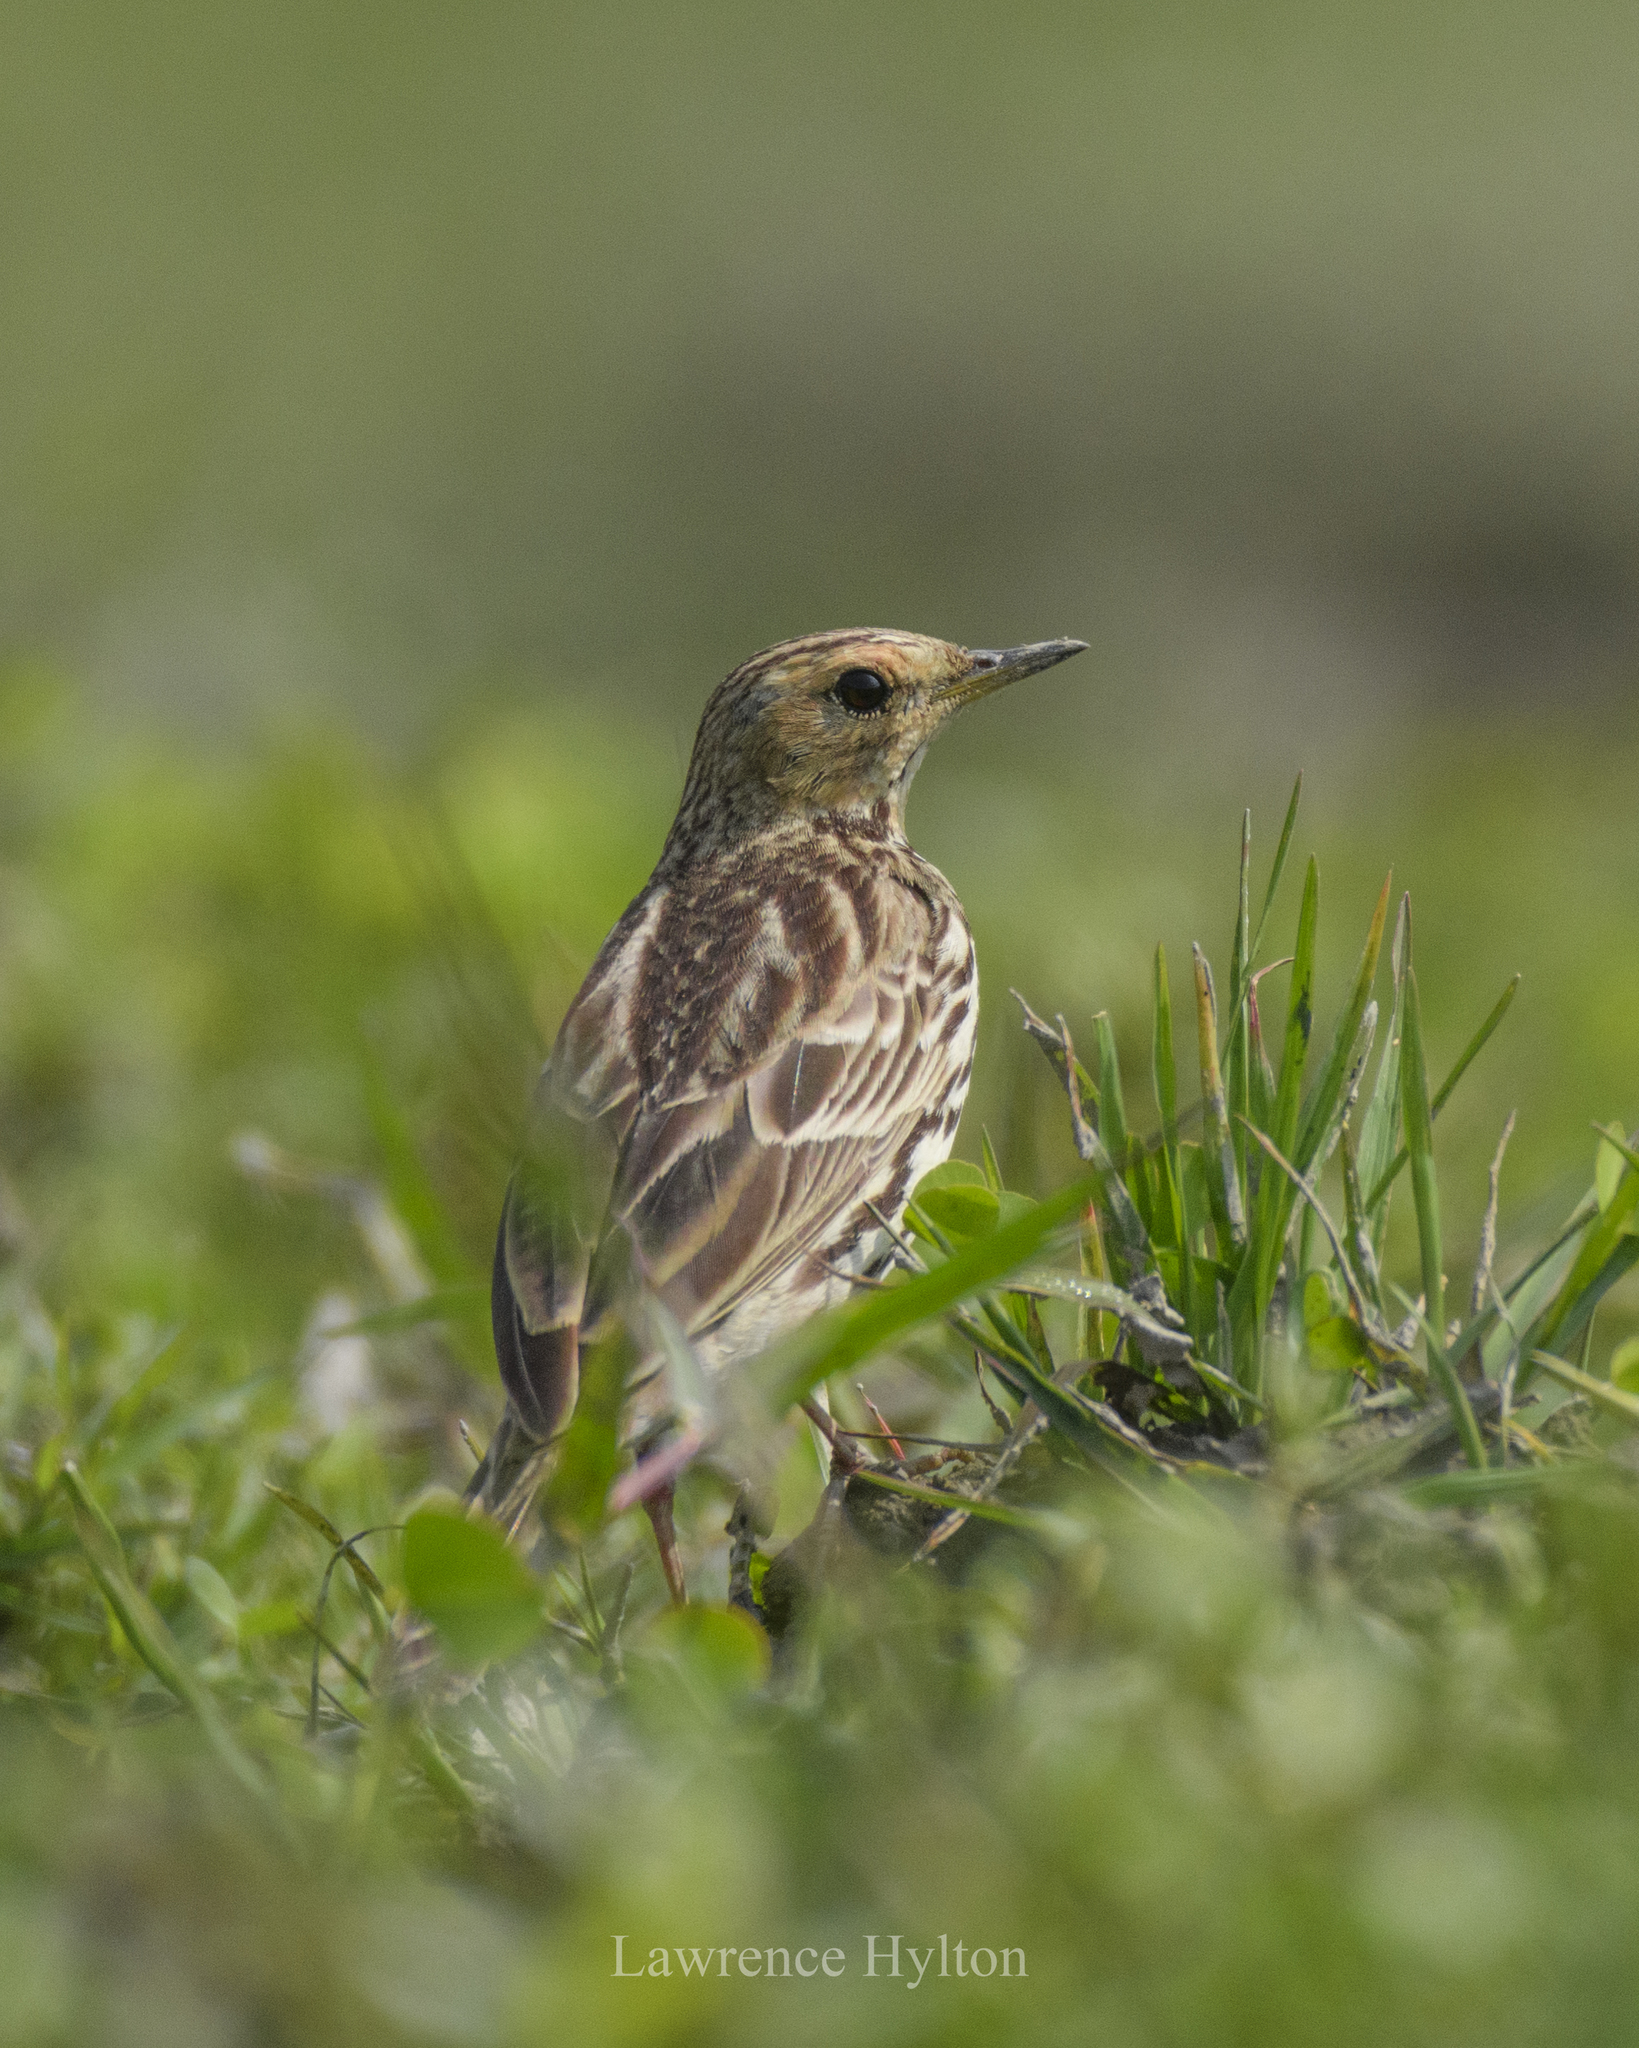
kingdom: Animalia
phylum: Chordata
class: Aves
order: Passeriformes
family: Motacillidae
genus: Anthus
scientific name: Anthus cervinus
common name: Red-throated pipit
